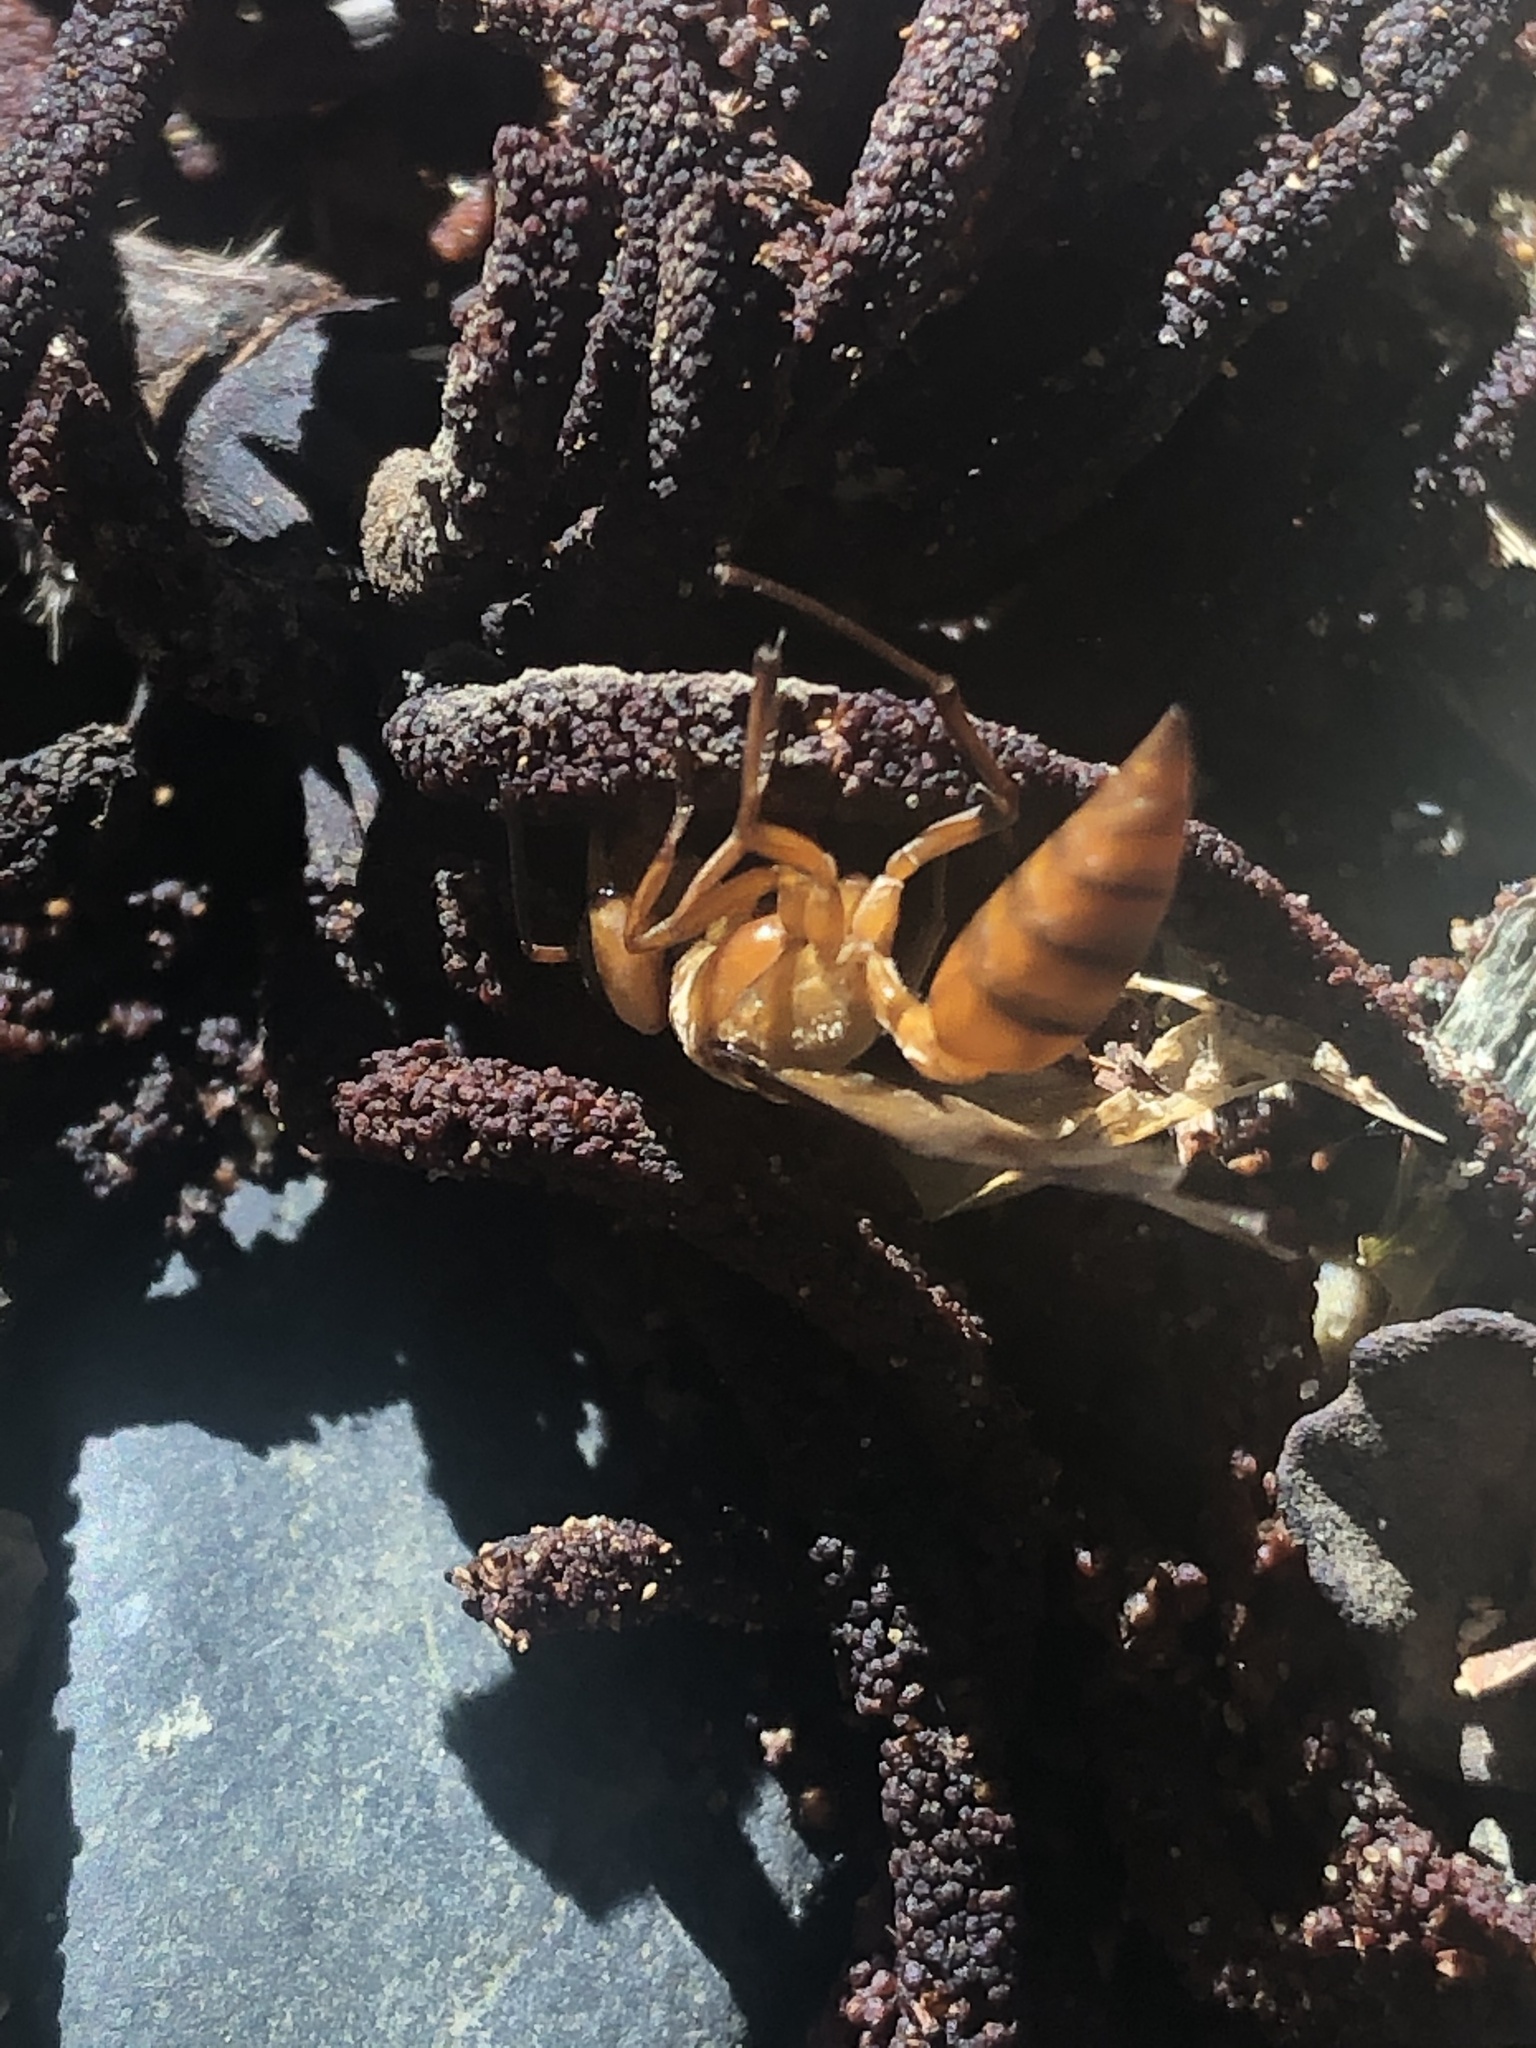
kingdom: Animalia
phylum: Arthropoda
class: Insecta
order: Hymenoptera
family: Vespidae
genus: Synoeca
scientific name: Synoeca virginea
